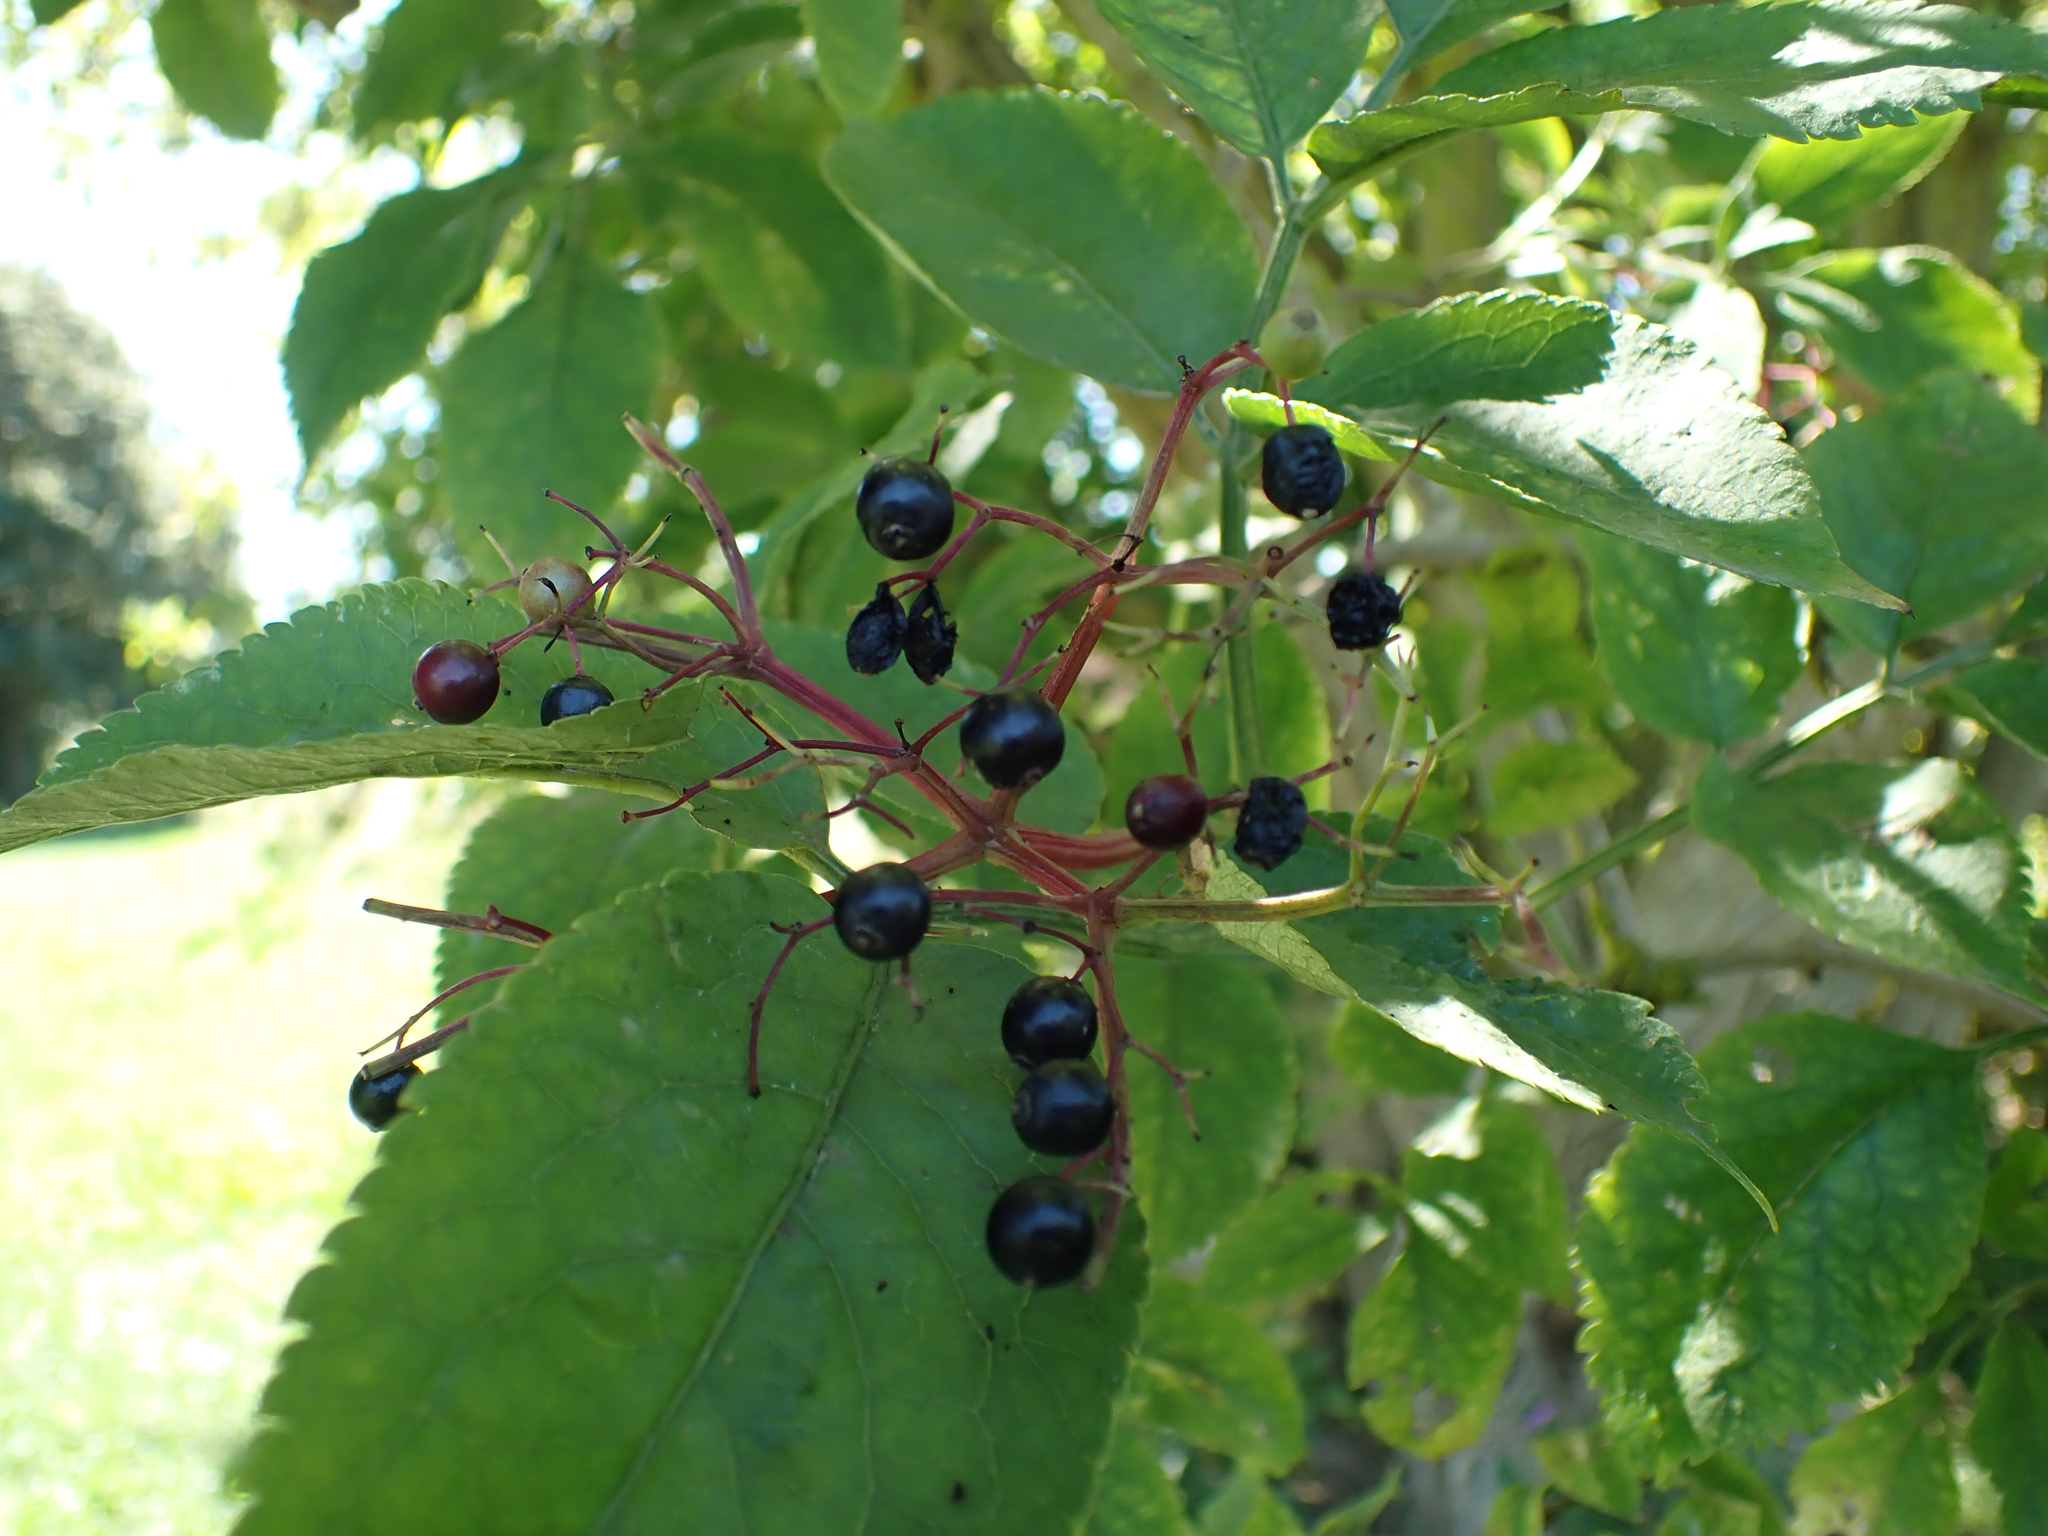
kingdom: Plantae
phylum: Tracheophyta
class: Magnoliopsida
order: Dipsacales
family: Viburnaceae
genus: Sambucus
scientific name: Sambucus nigra
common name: Elder
